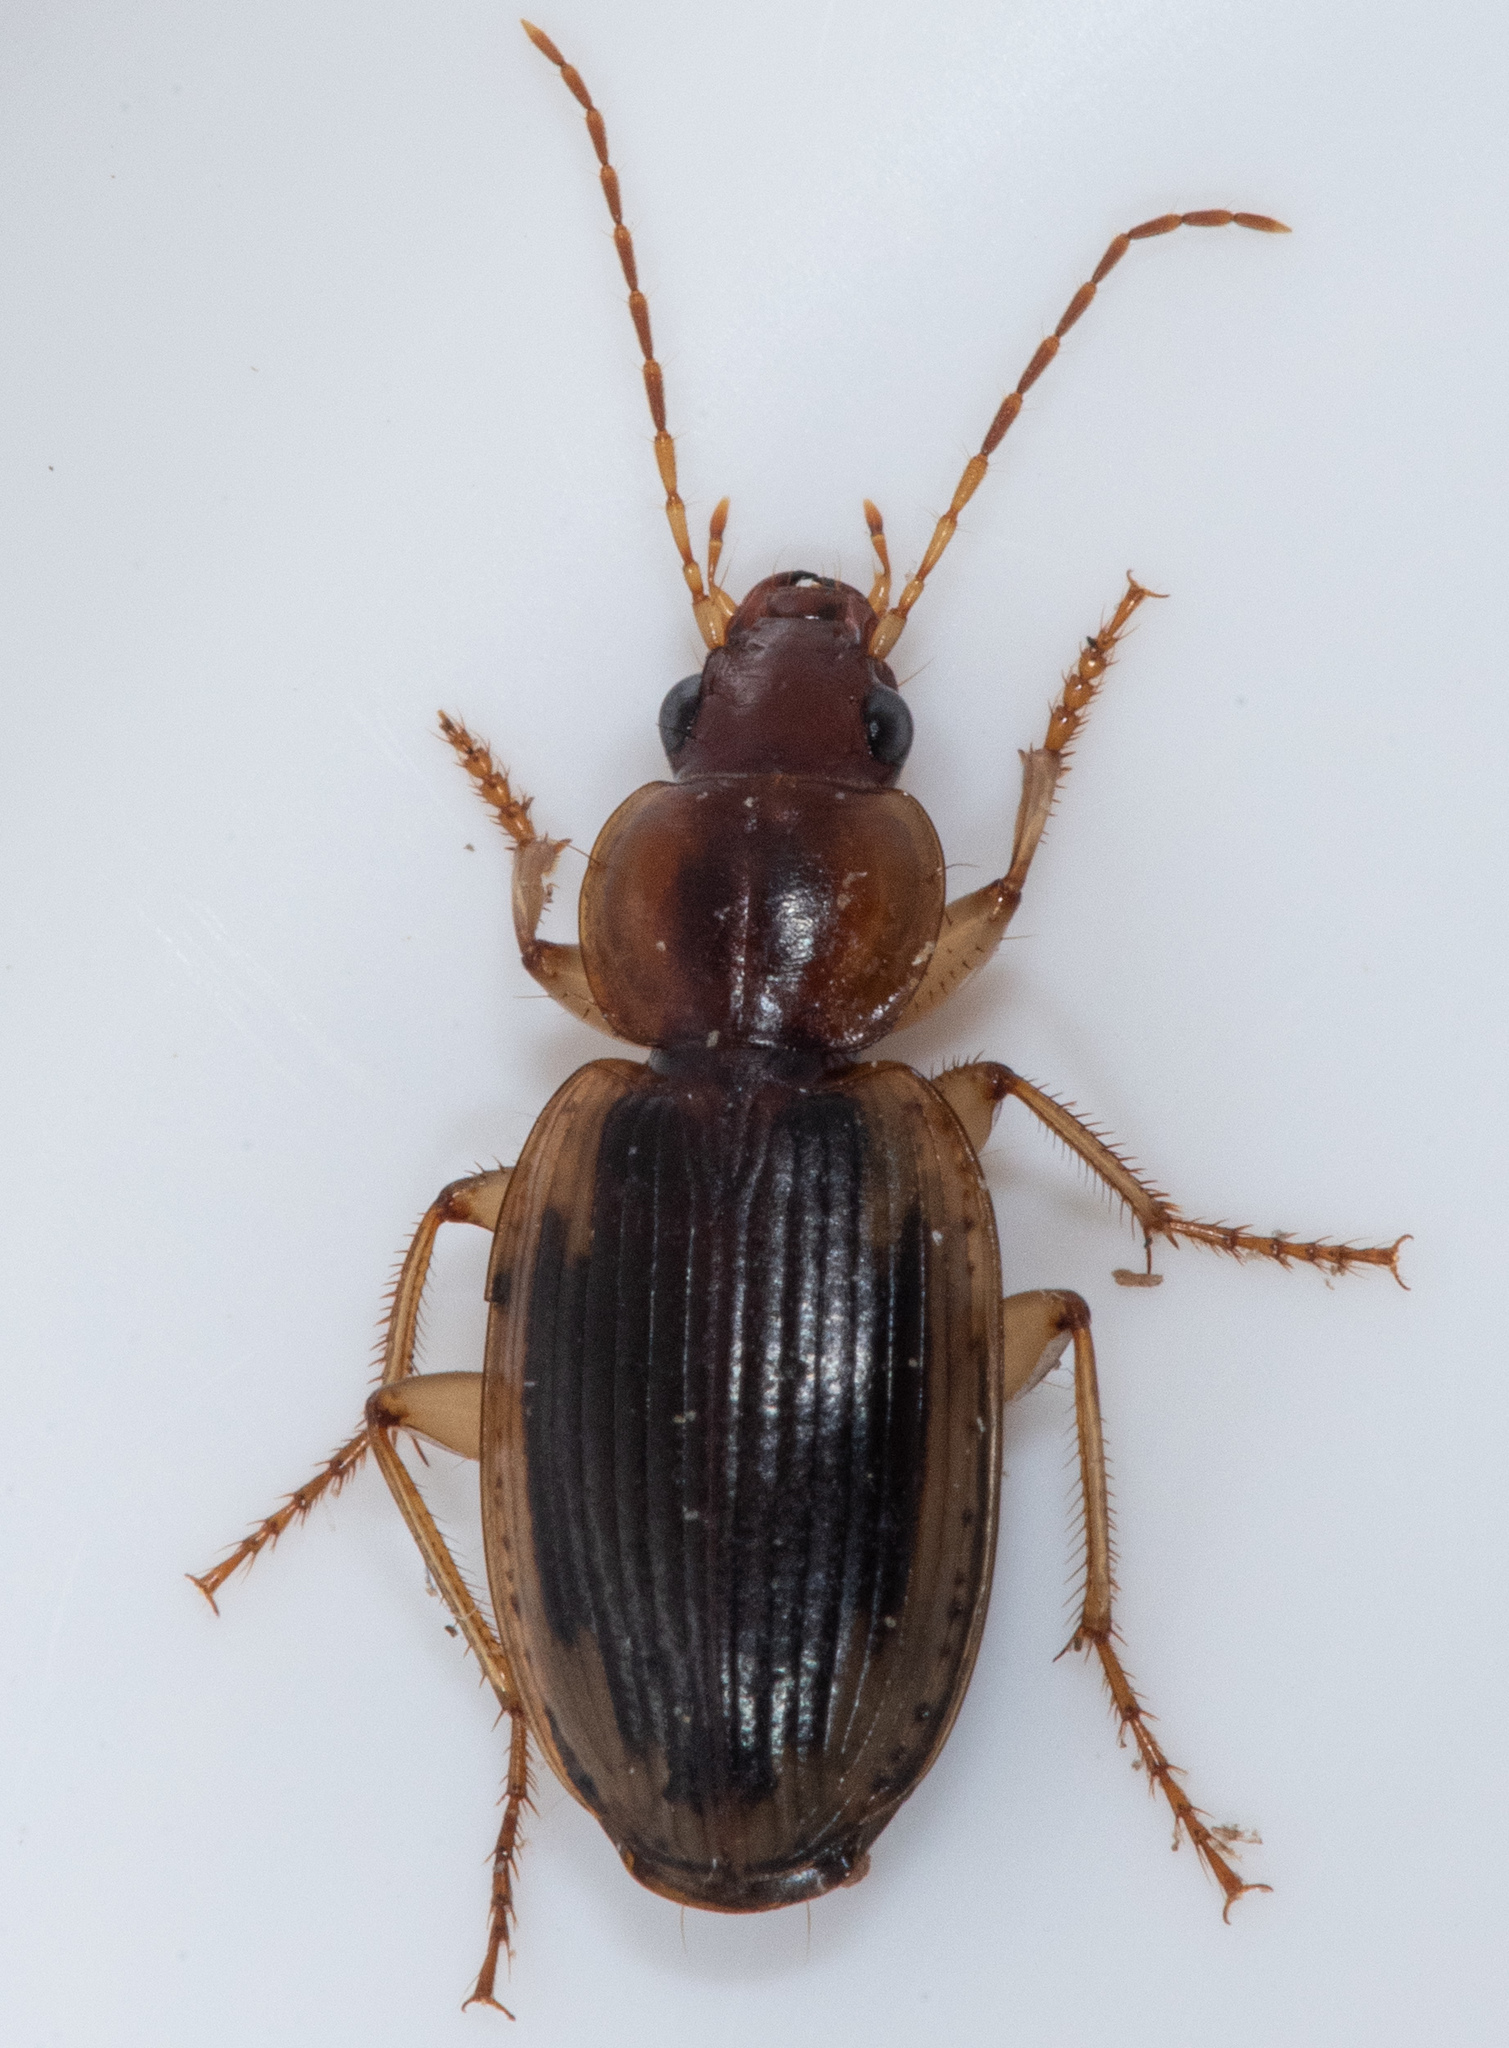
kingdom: Animalia
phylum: Arthropoda
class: Insecta
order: Coleoptera
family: Carabidae
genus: Tanystoma
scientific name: Tanystoma maculicolle
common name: Tule beetle
